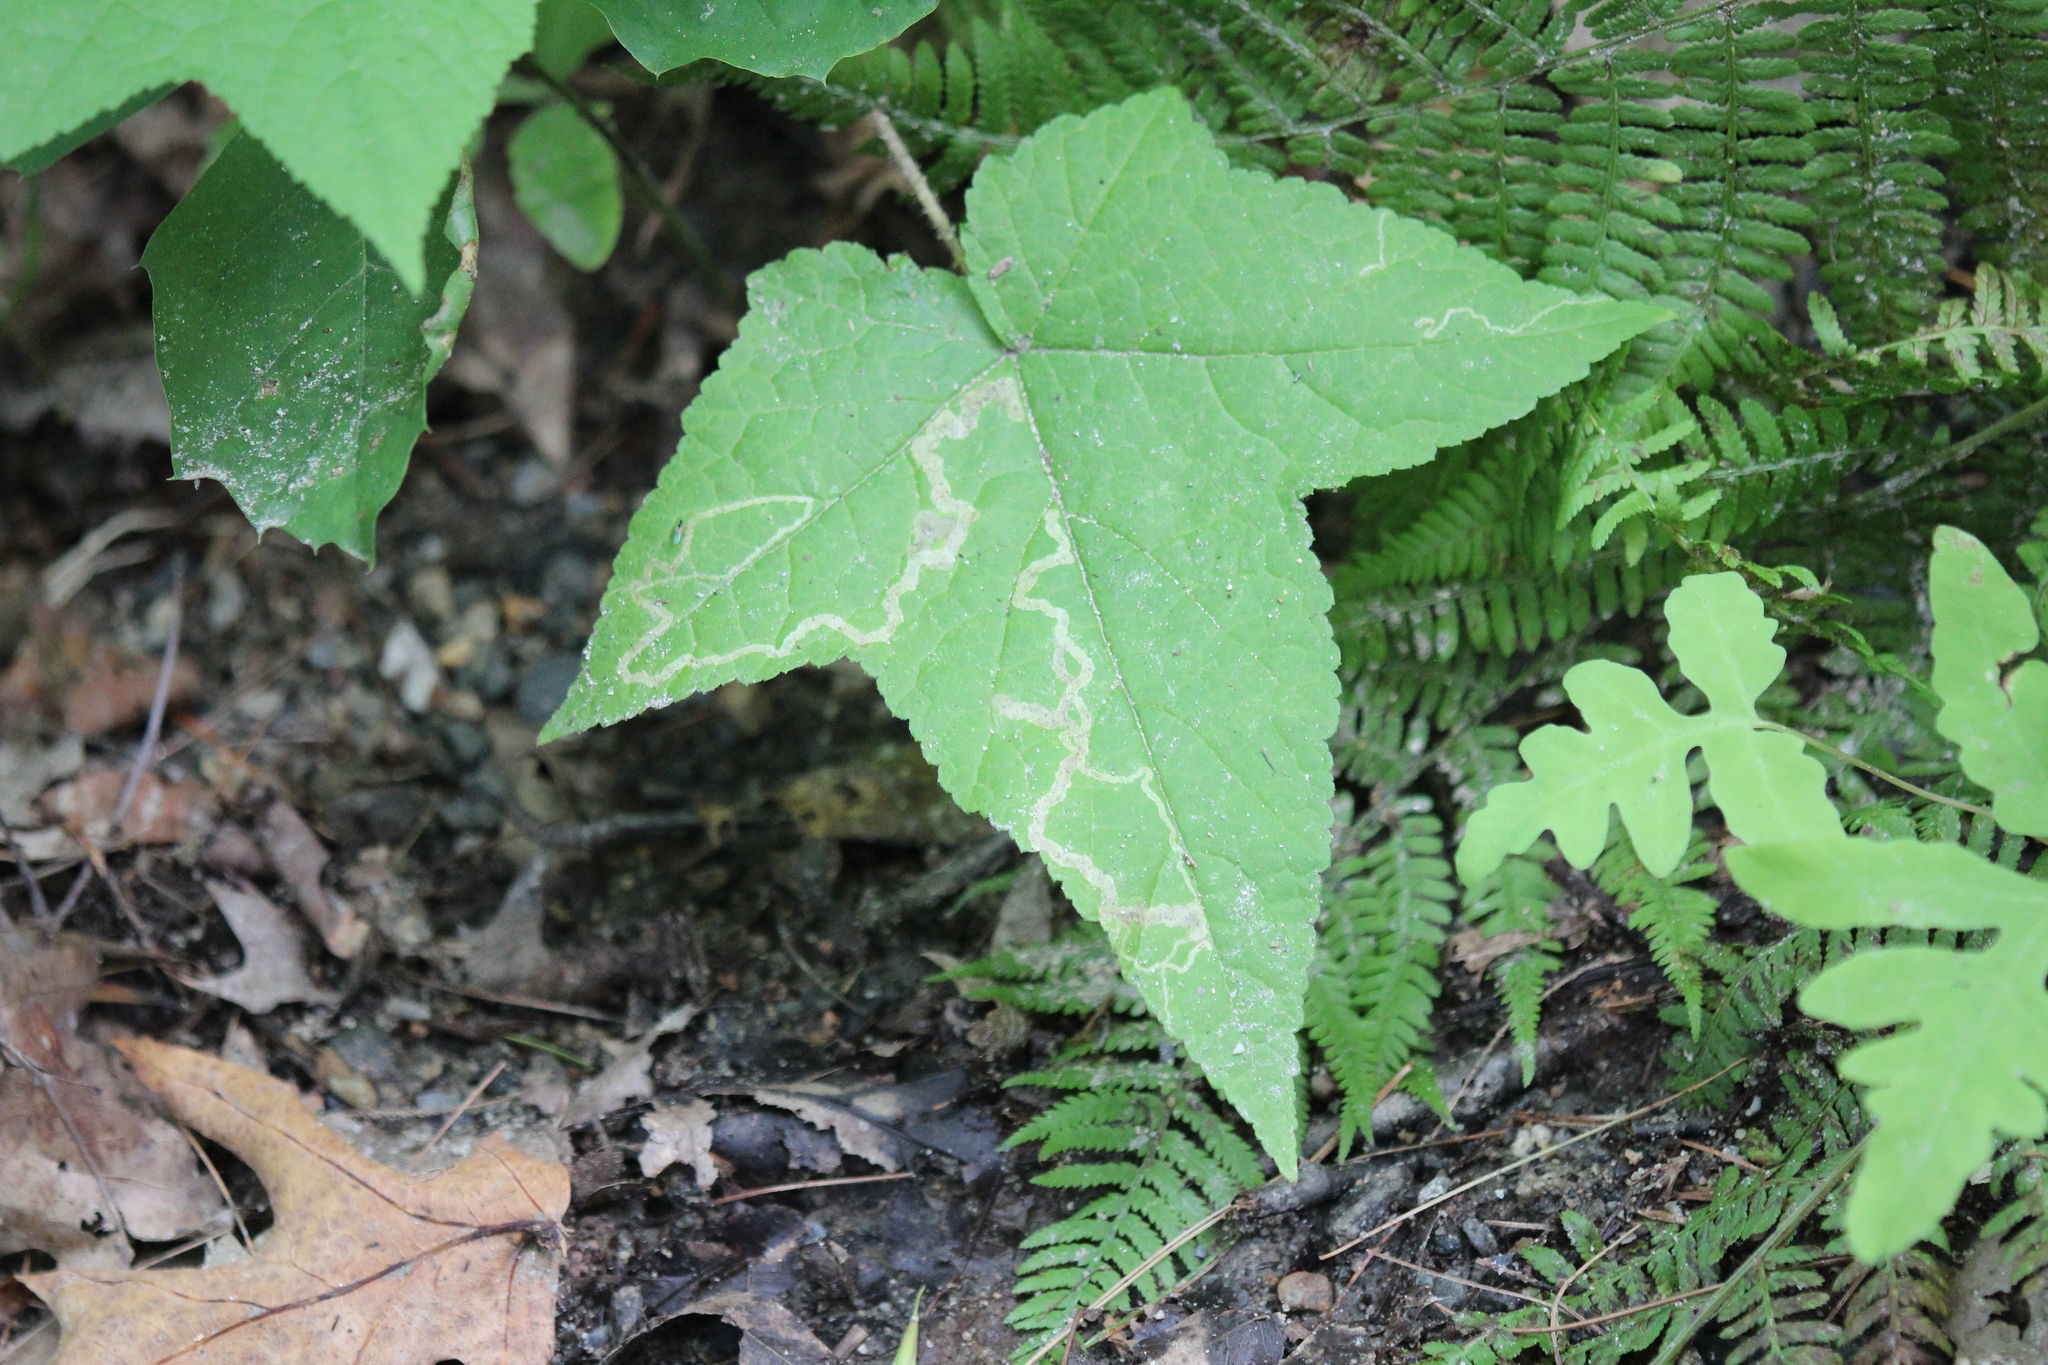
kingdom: Plantae
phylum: Tracheophyta
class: Magnoliopsida
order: Rosales
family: Rosaceae
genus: Rubus
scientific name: Rubus odoratus
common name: Purple-flowered raspberry
